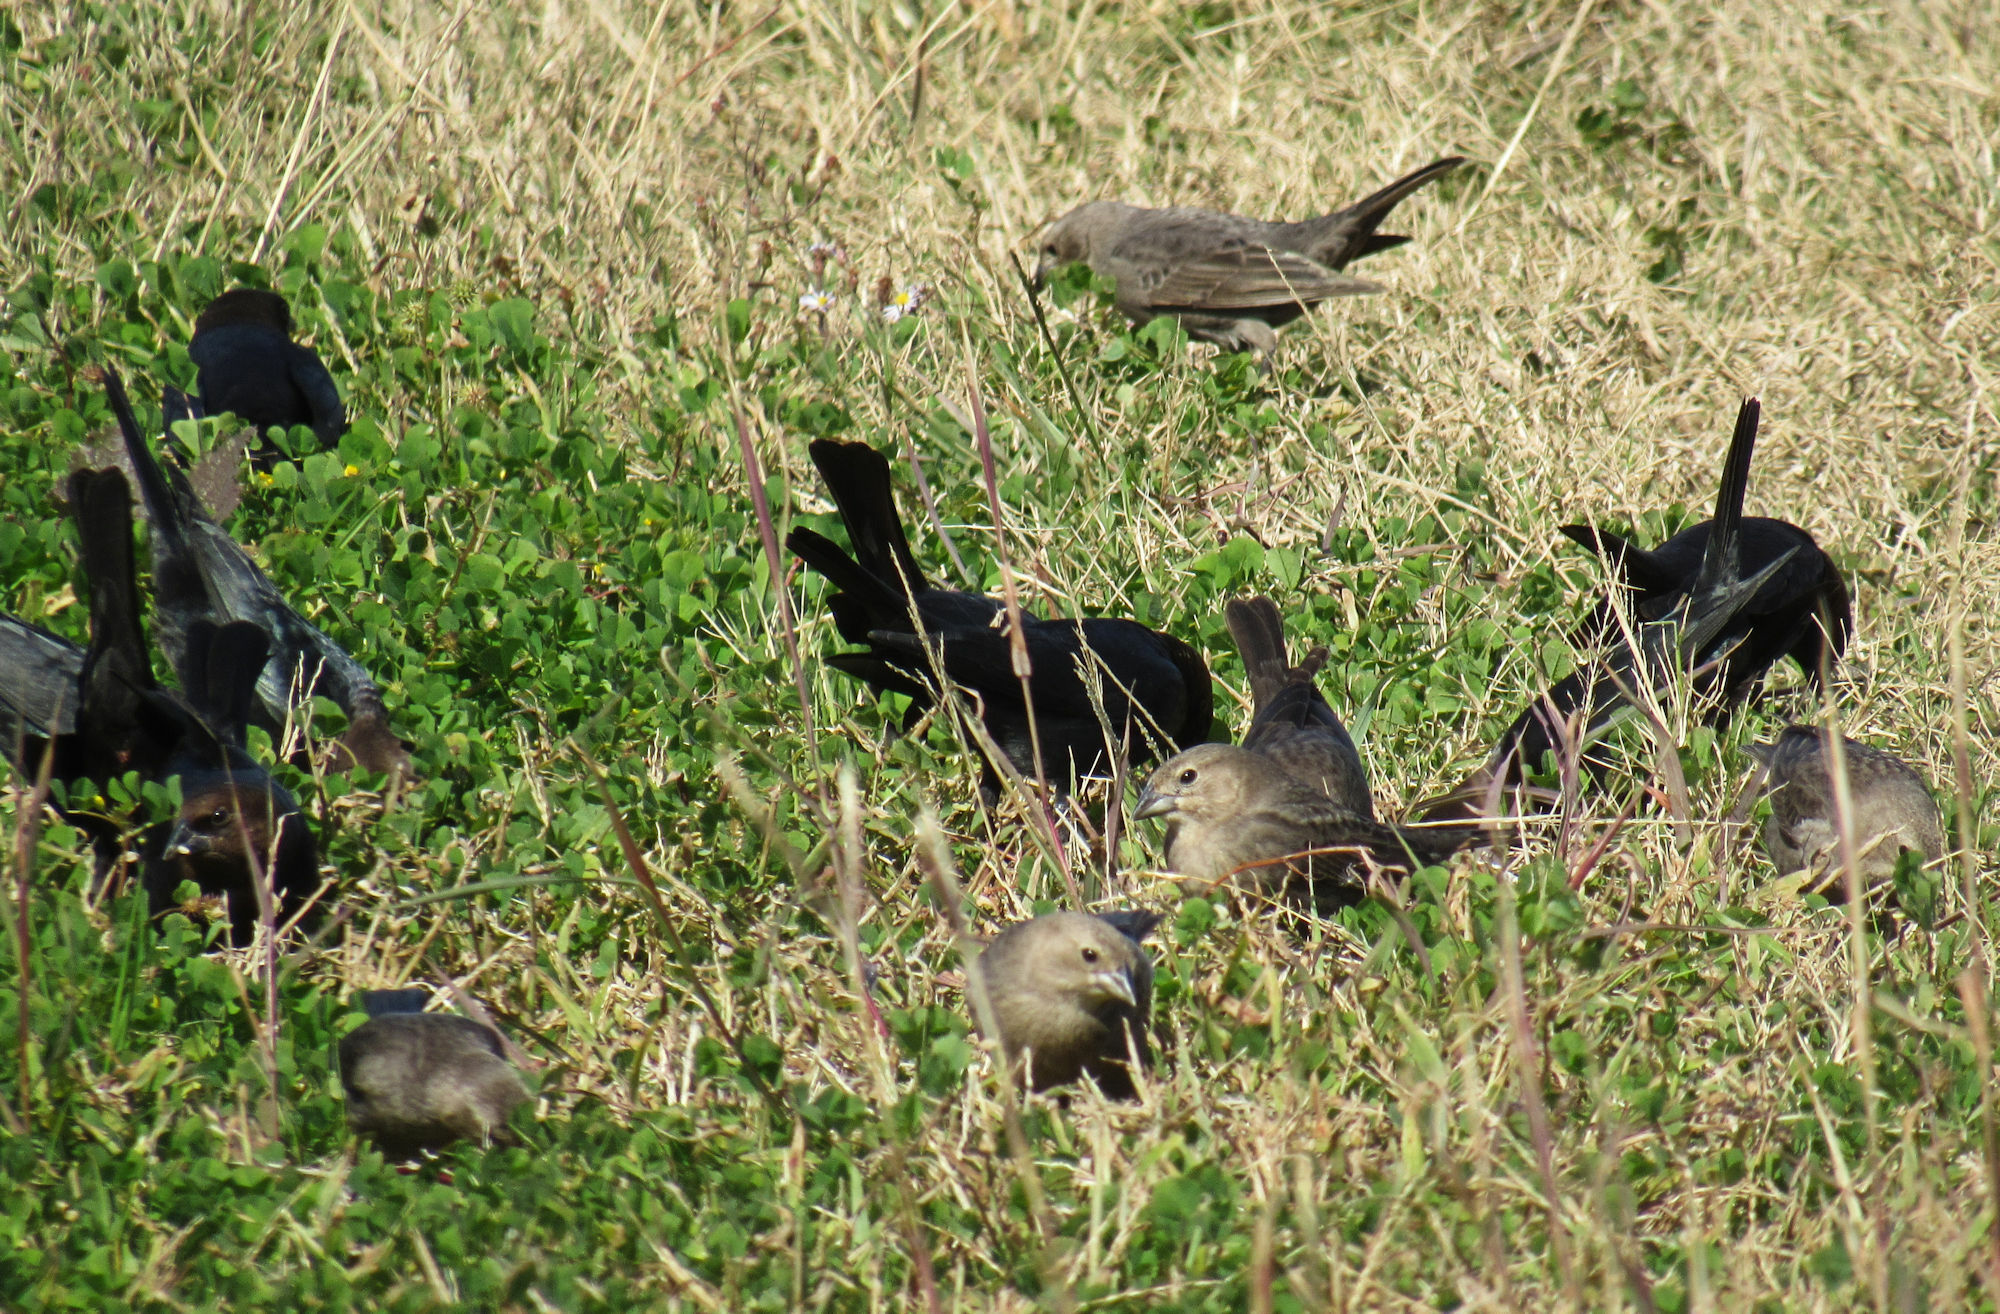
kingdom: Animalia
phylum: Chordata
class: Aves
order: Passeriformes
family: Icteridae
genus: Molothrus
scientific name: Molothrus ater
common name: Brown-headed cowbird
